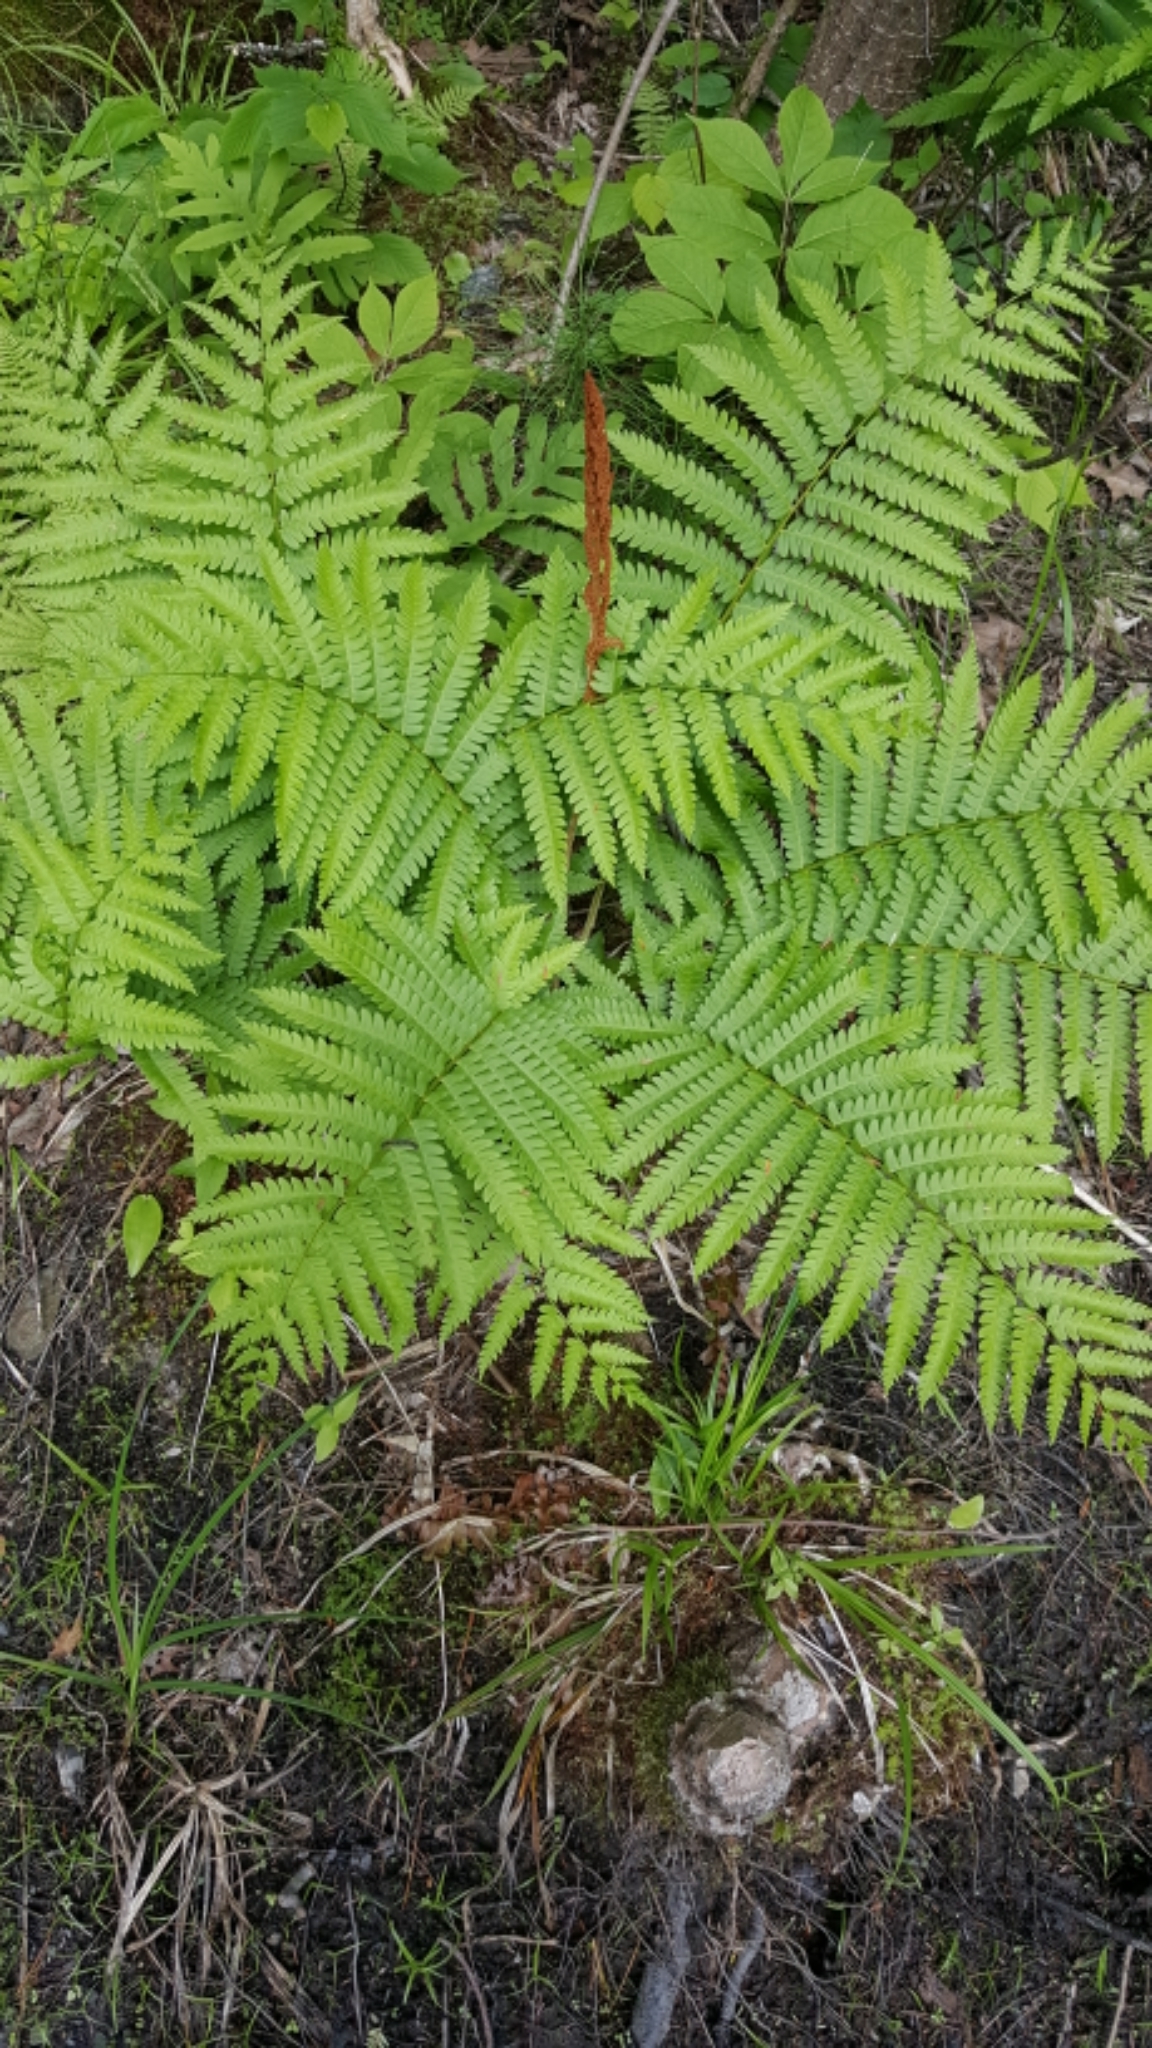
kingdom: Plantae
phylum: Tracheophyta
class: Polypodiopsida
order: Osmundales
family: Osmundaceae
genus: Osmundastrum
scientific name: Osmundastrum cinnamomeum
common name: Cinnamon fern
